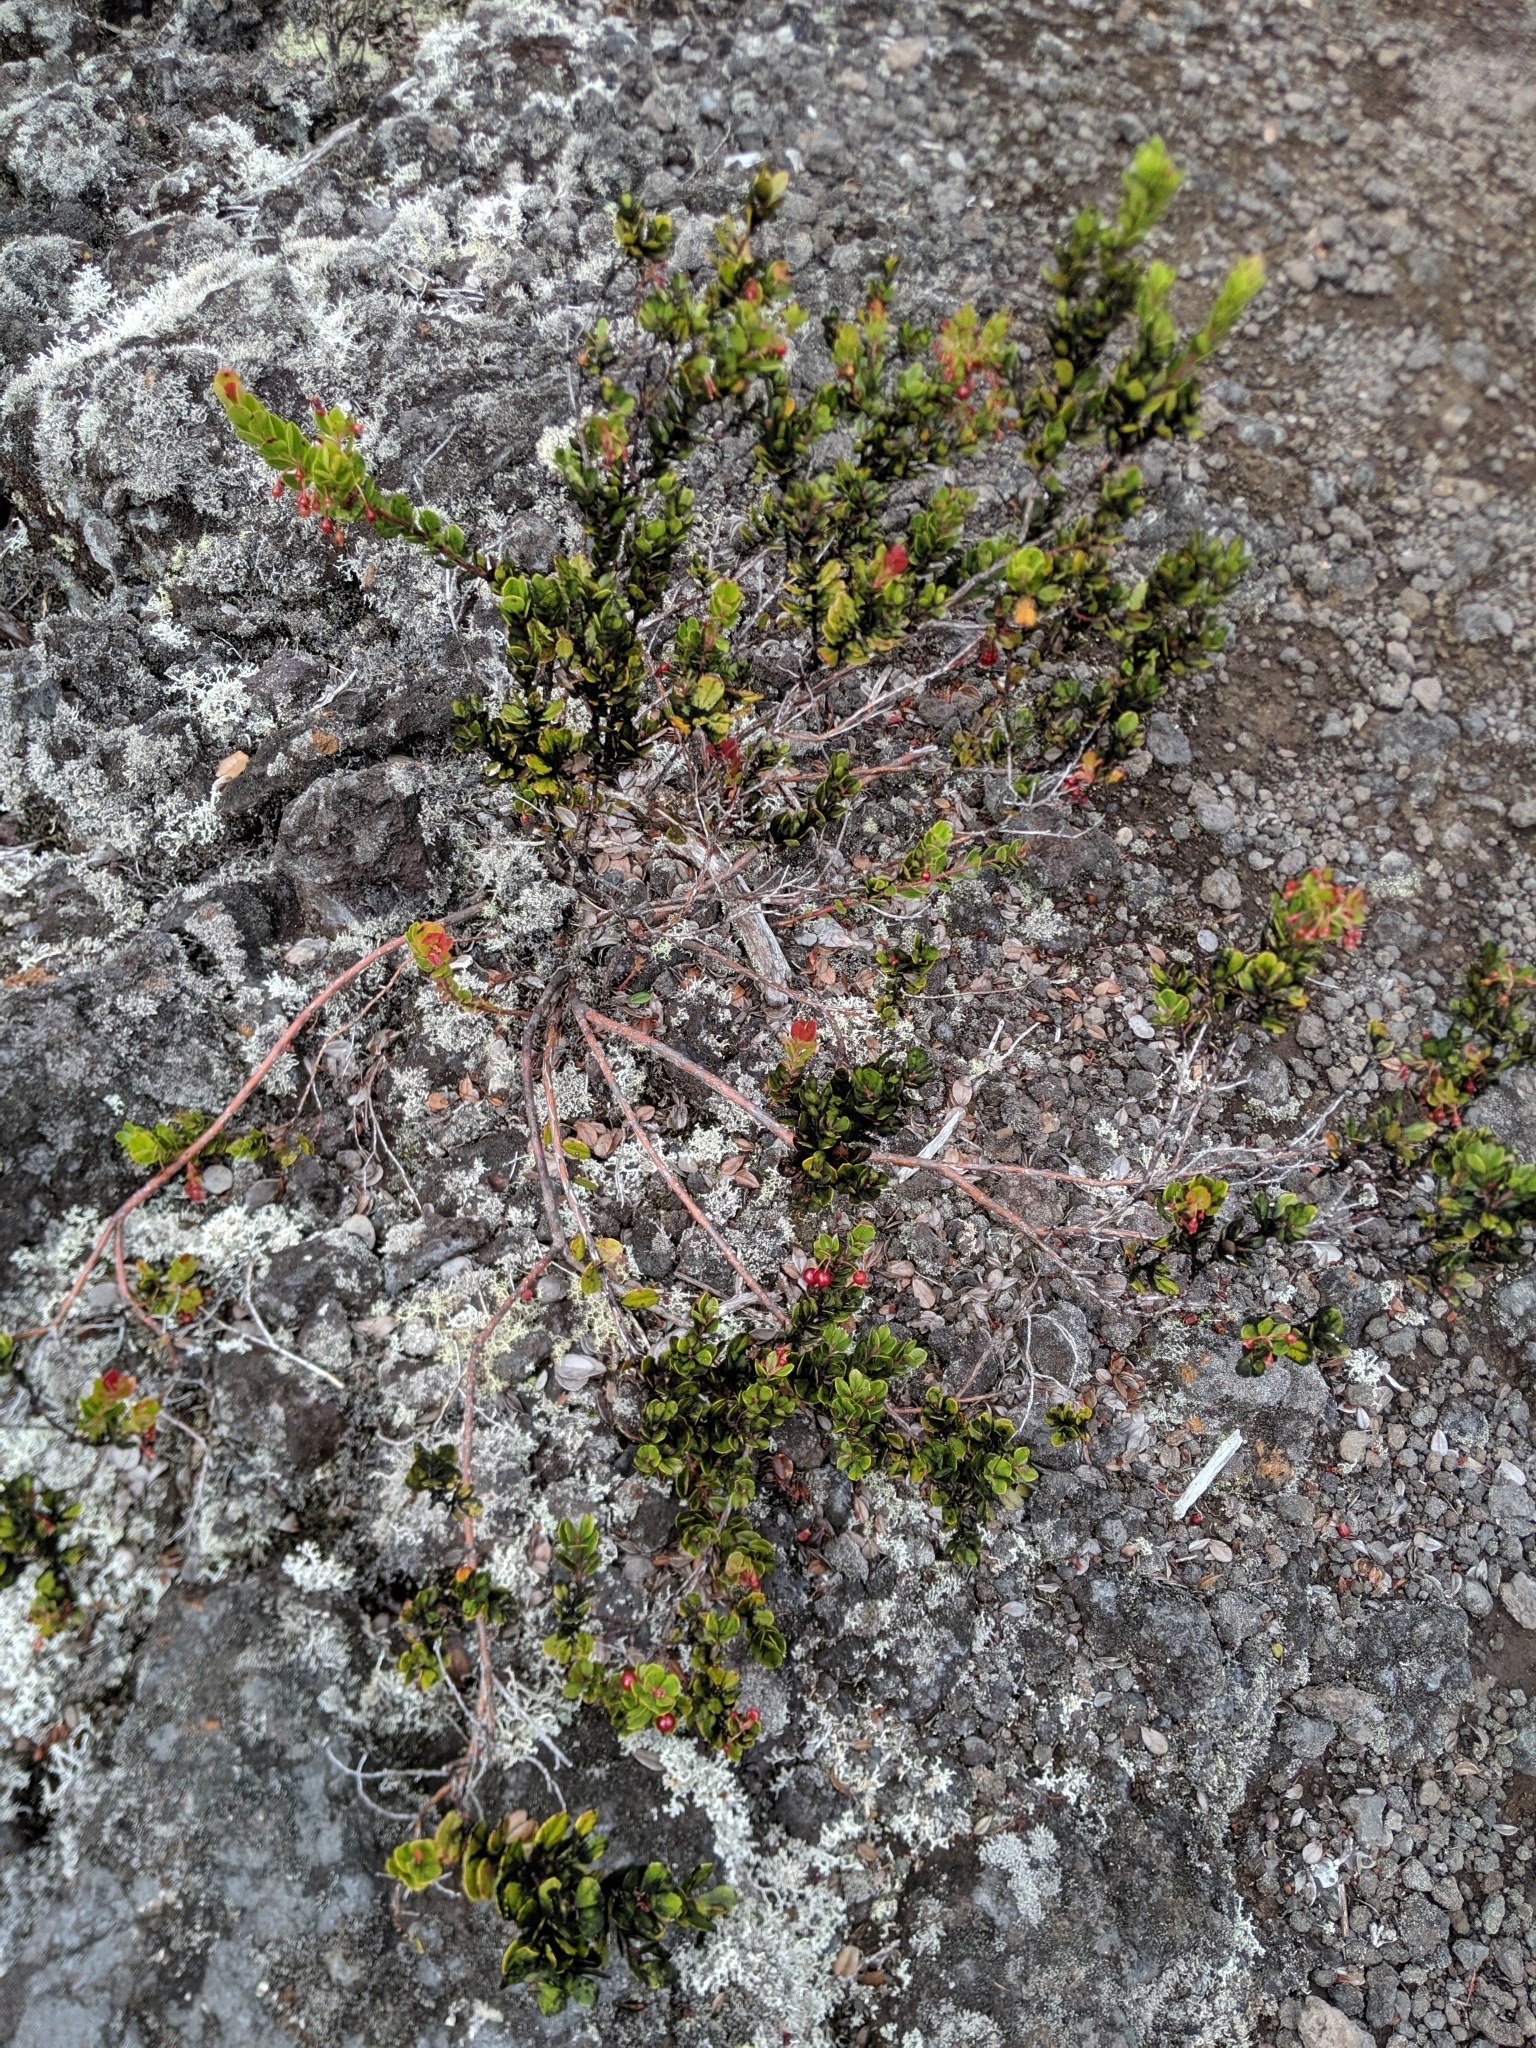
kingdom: Plantae
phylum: Tracheophyta
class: Magnoliopsida
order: Ericales
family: Ericaceae
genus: Vaccinium
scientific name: Vaccinium reticulatum
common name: Ohelo
